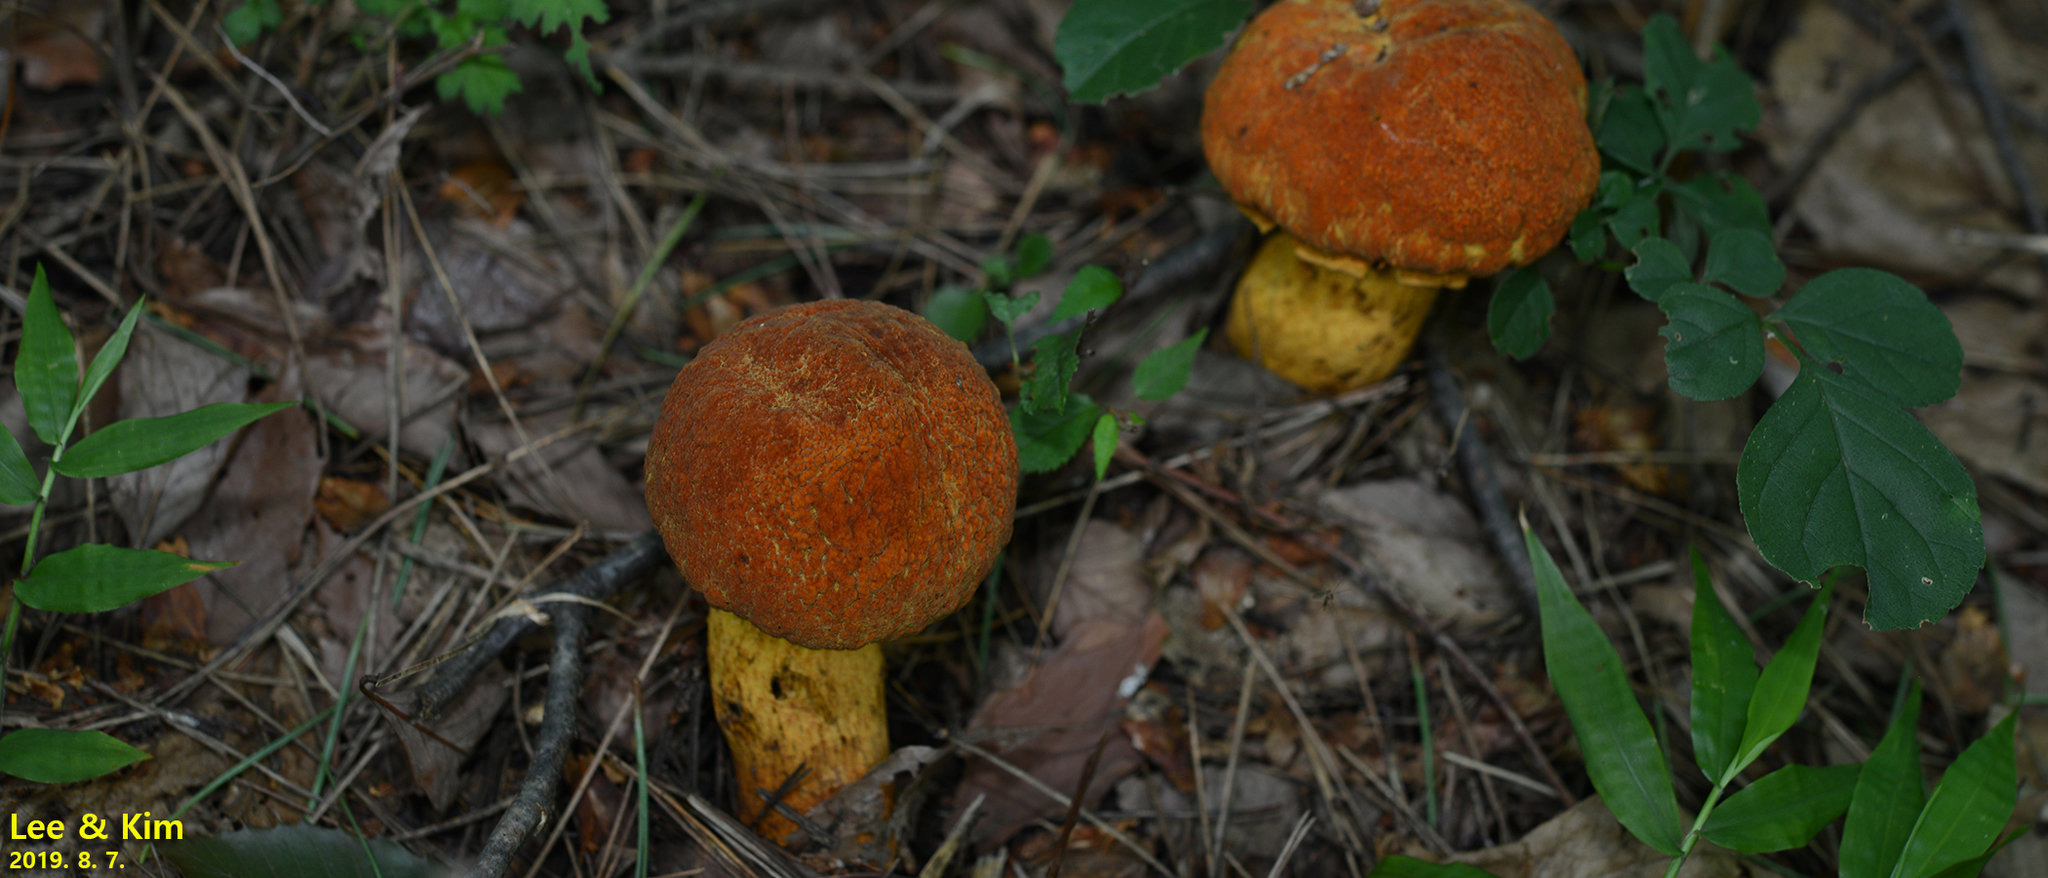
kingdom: Fungi
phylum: Basidiomycota
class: Agaricomycetes
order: Boletales
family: Boletaceae
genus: Rugiboletus
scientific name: Rugiboletus extremiorientalis
